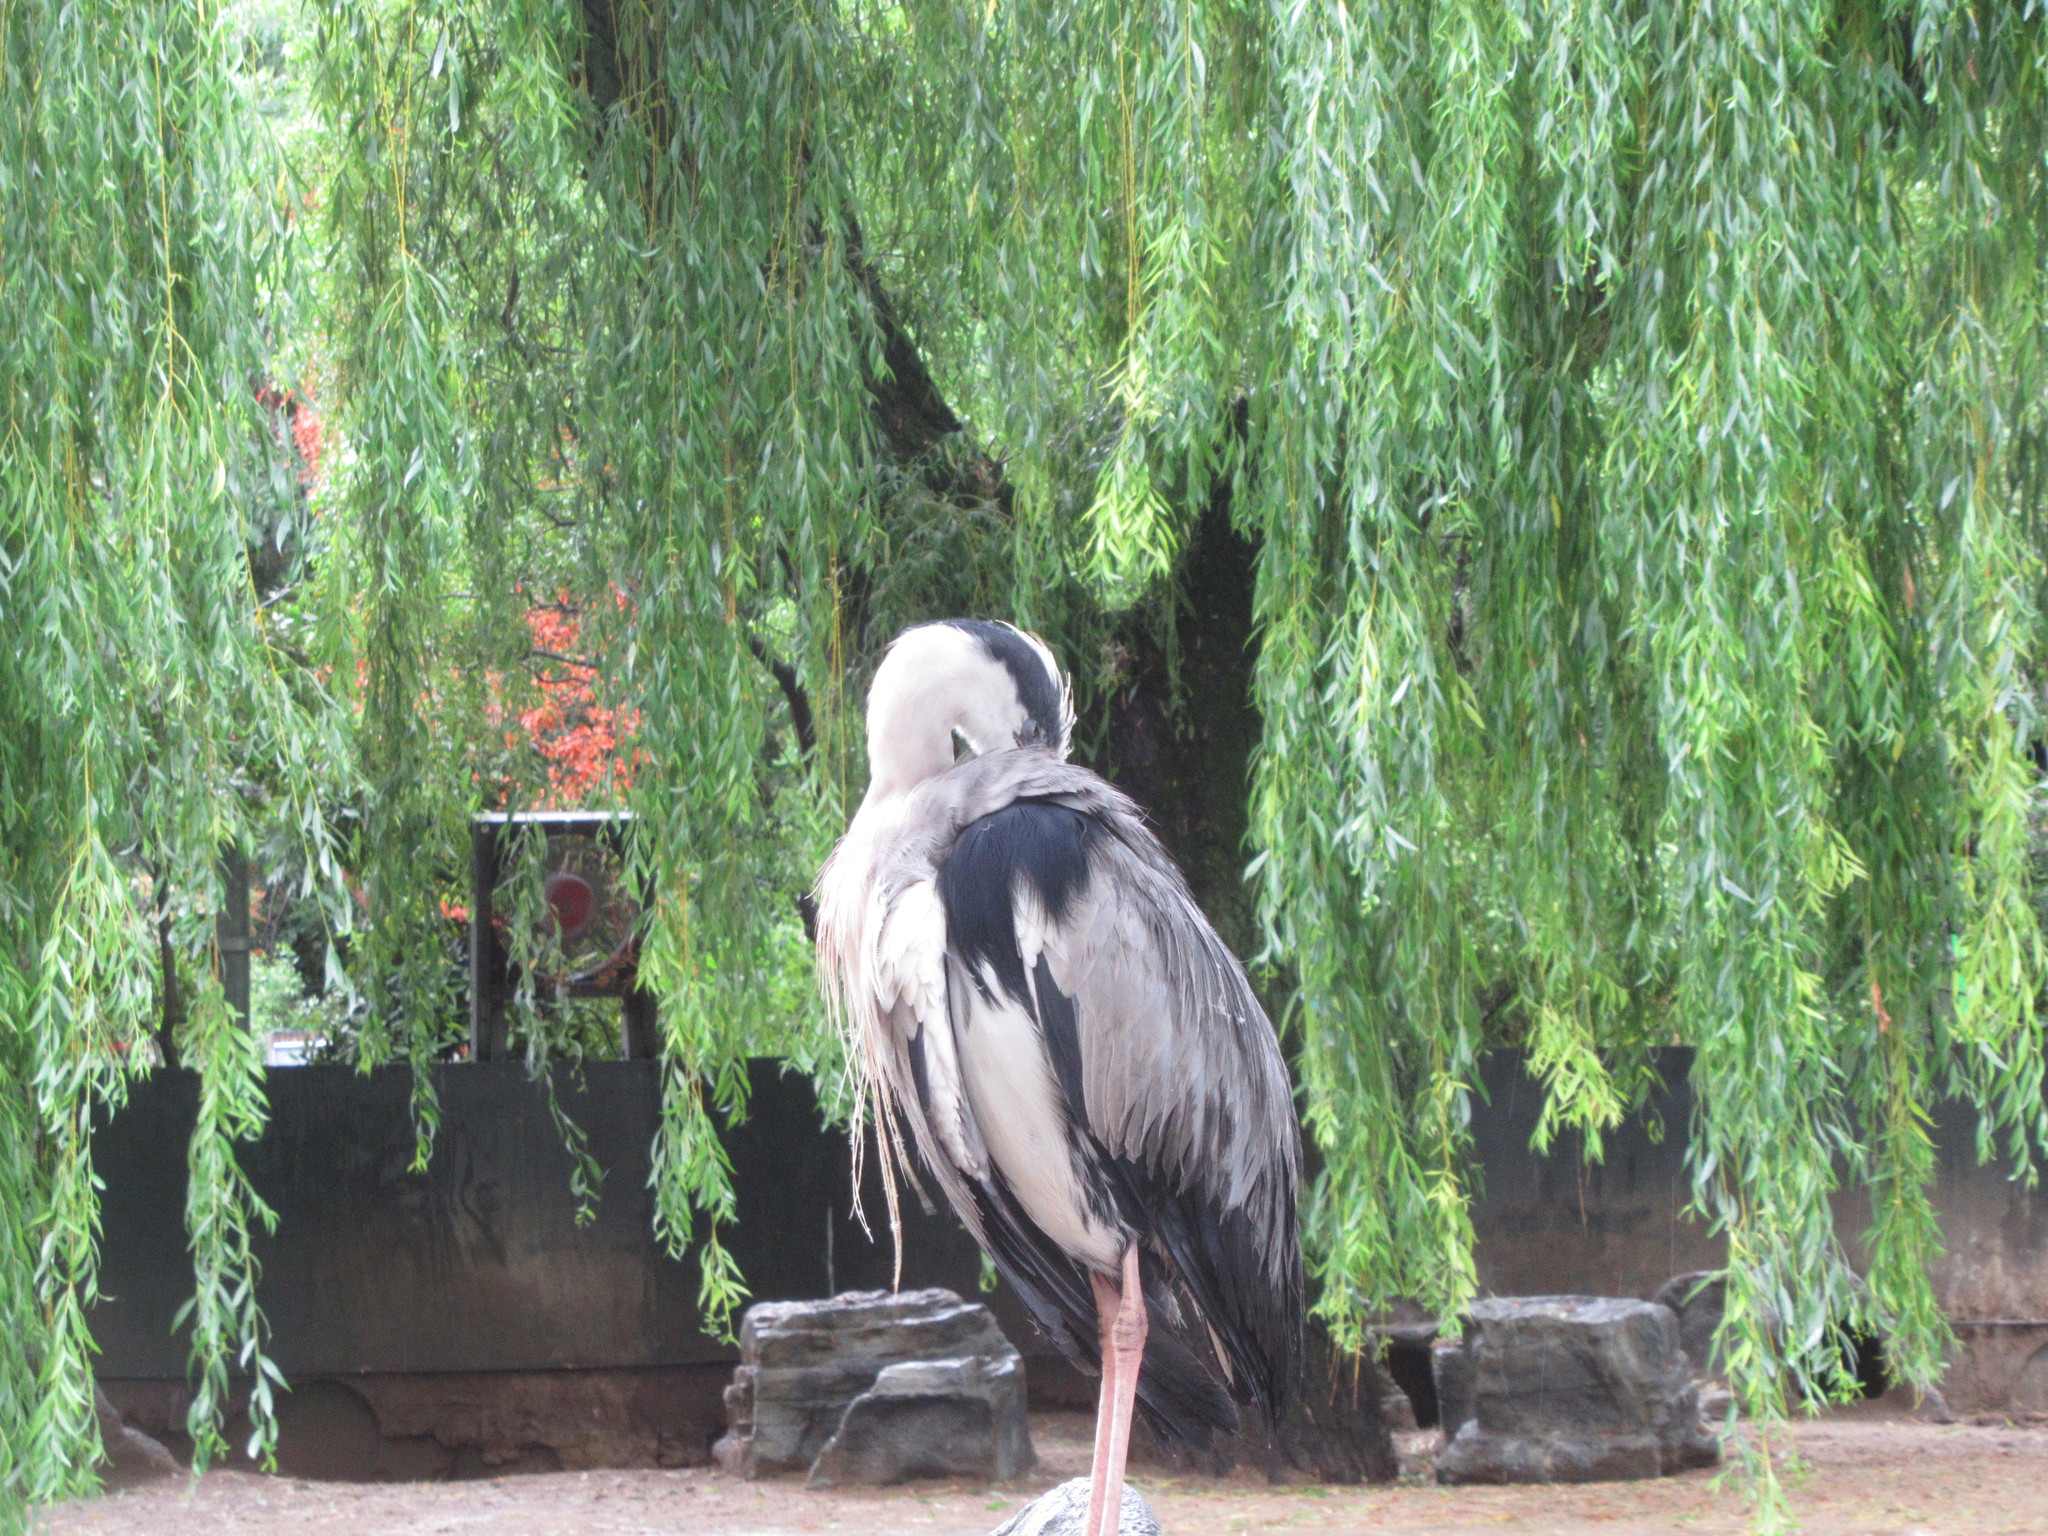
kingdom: Animalia
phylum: Chordata
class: Aves
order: Pelecaniformes
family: Ardeidae
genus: Ardea
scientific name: Ardea cinerea
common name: Grey heron
